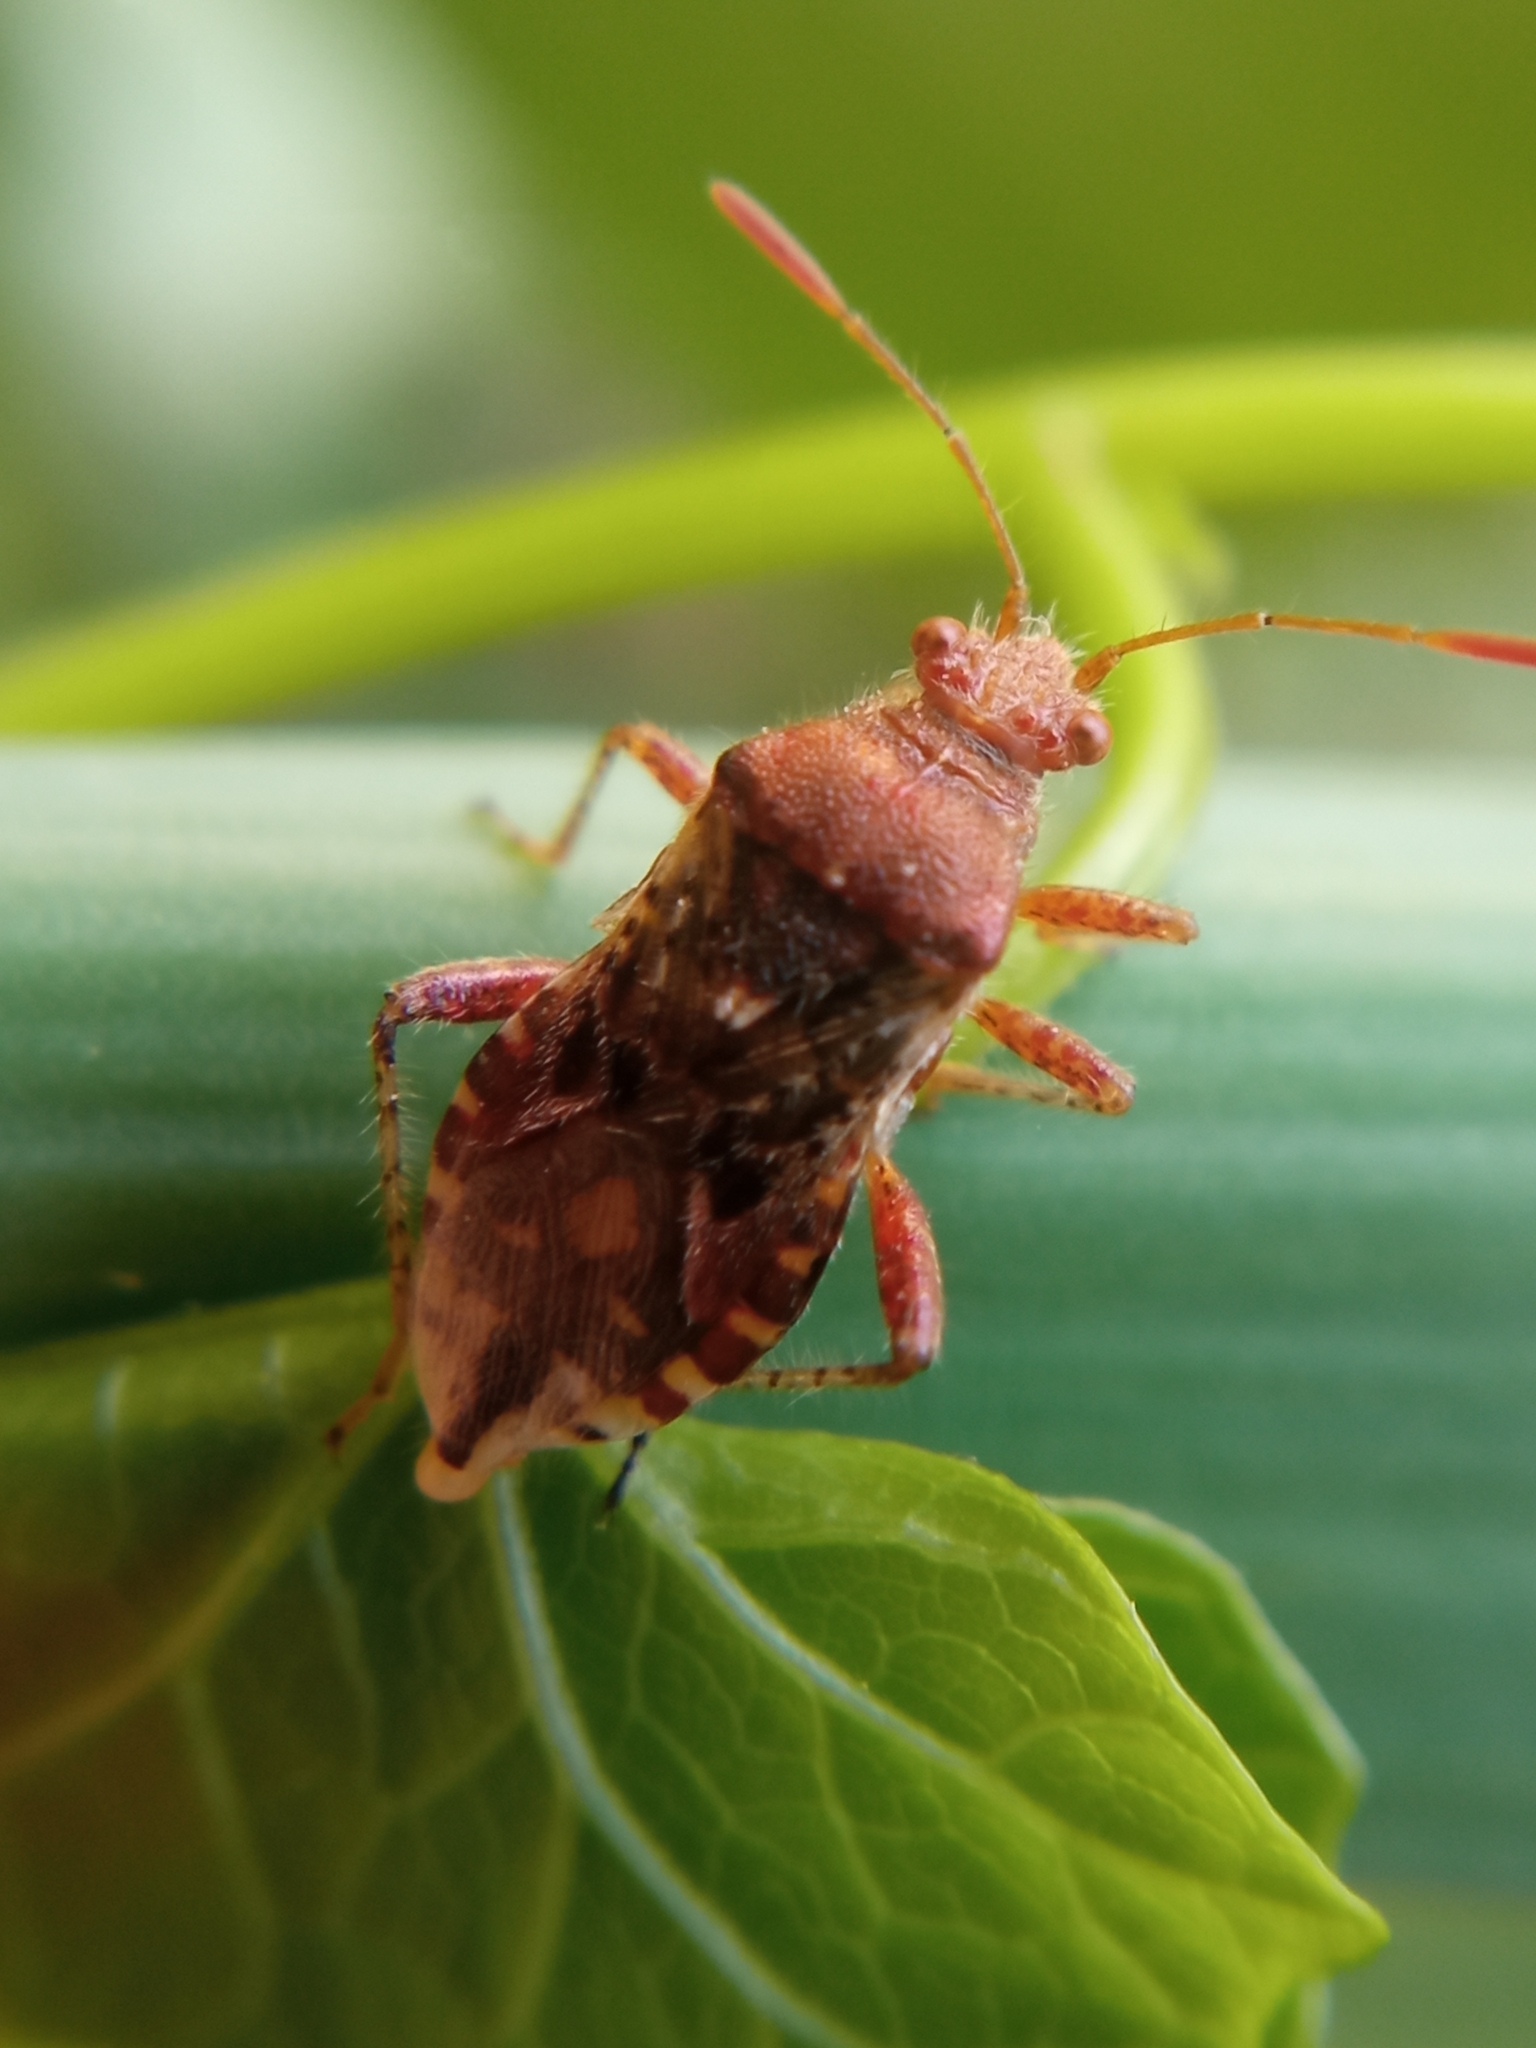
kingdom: Animalia
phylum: Arthropoda
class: Insecta
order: Hemiptera
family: Rhopalidae
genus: Rhopalus
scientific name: Rhopalus subrufus
